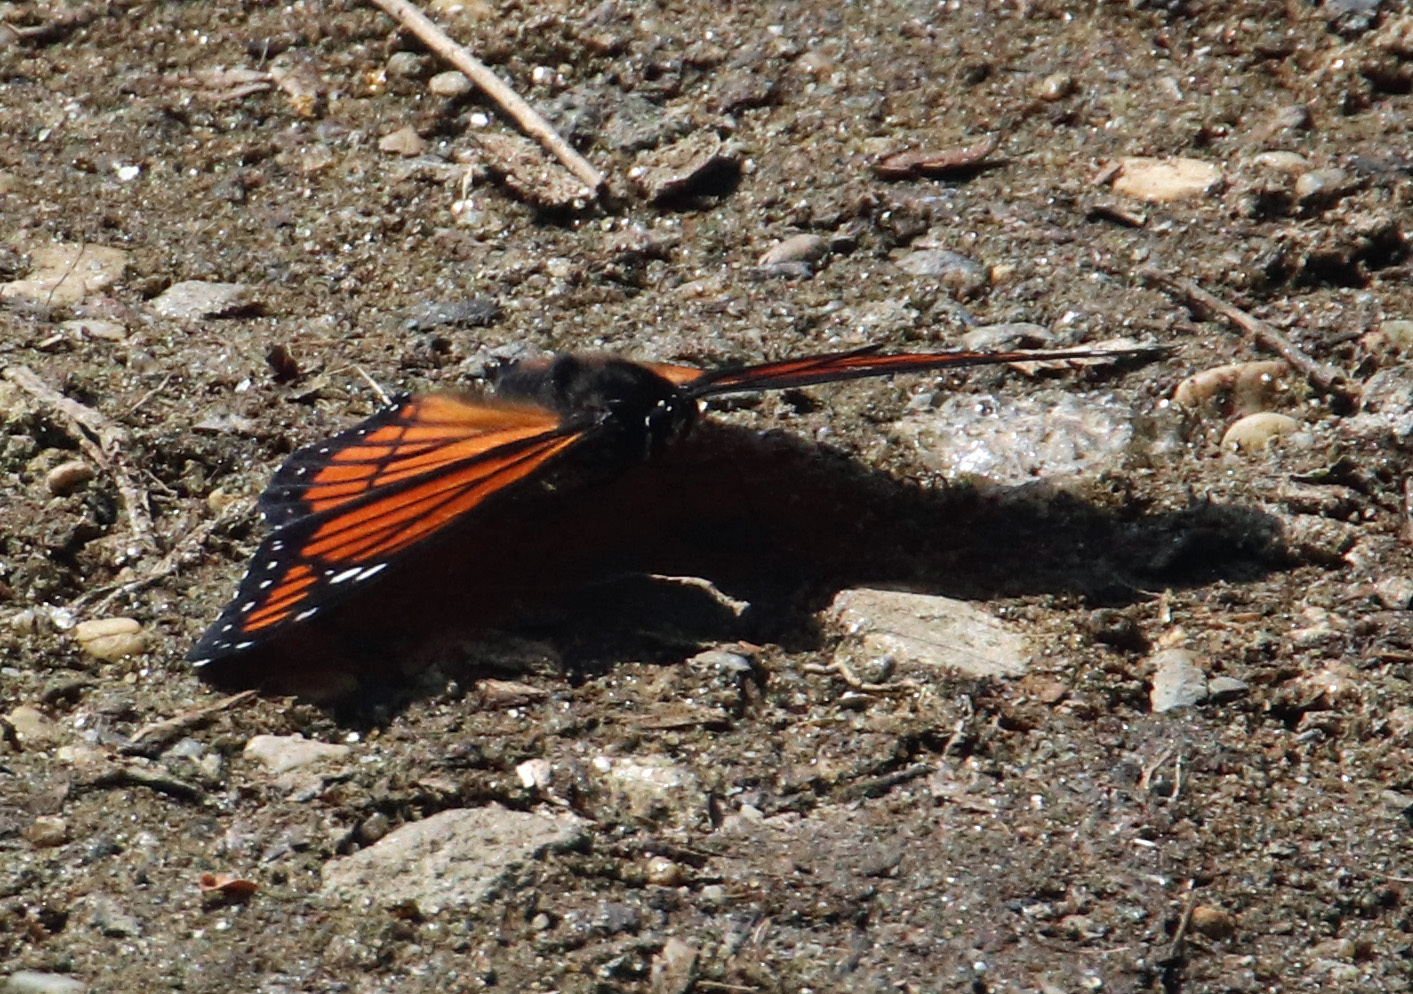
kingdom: Animalia
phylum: Arthropoda
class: Insecta
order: Lepidoptera
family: Nymphalidae
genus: Limenitis
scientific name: Limenitis archippus
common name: Viceroy
